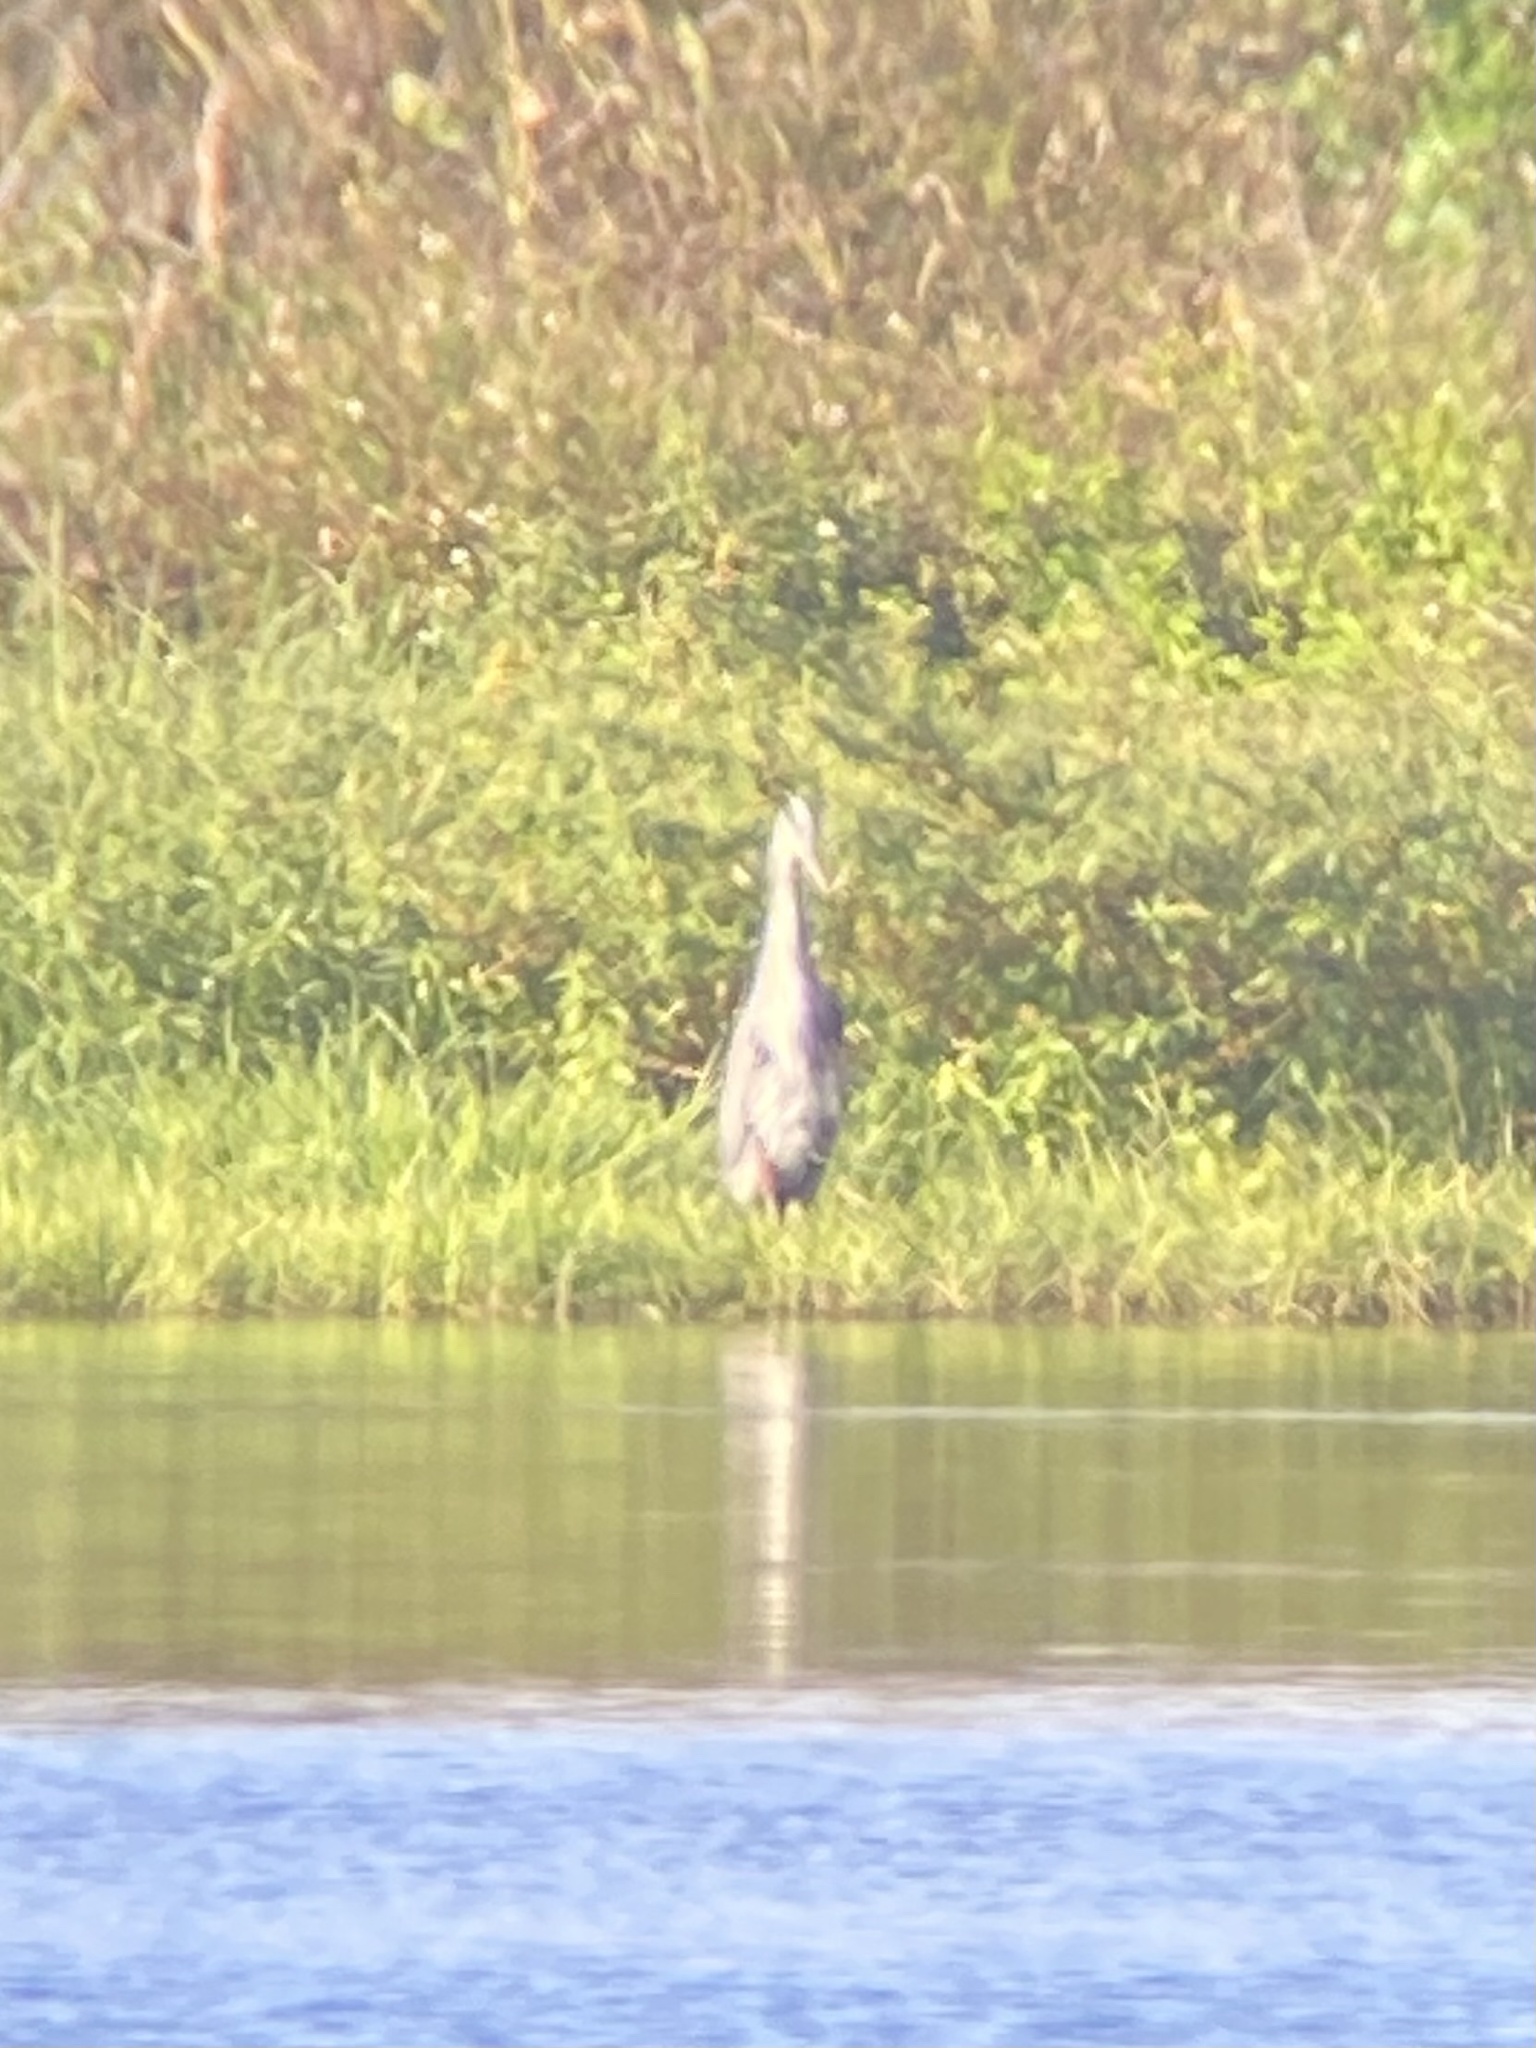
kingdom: Animalia
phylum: Chordata
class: Aves
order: Pelecaniformes
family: Ardeidae
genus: Ardea
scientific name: Ardea herodias
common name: Great blue heron
